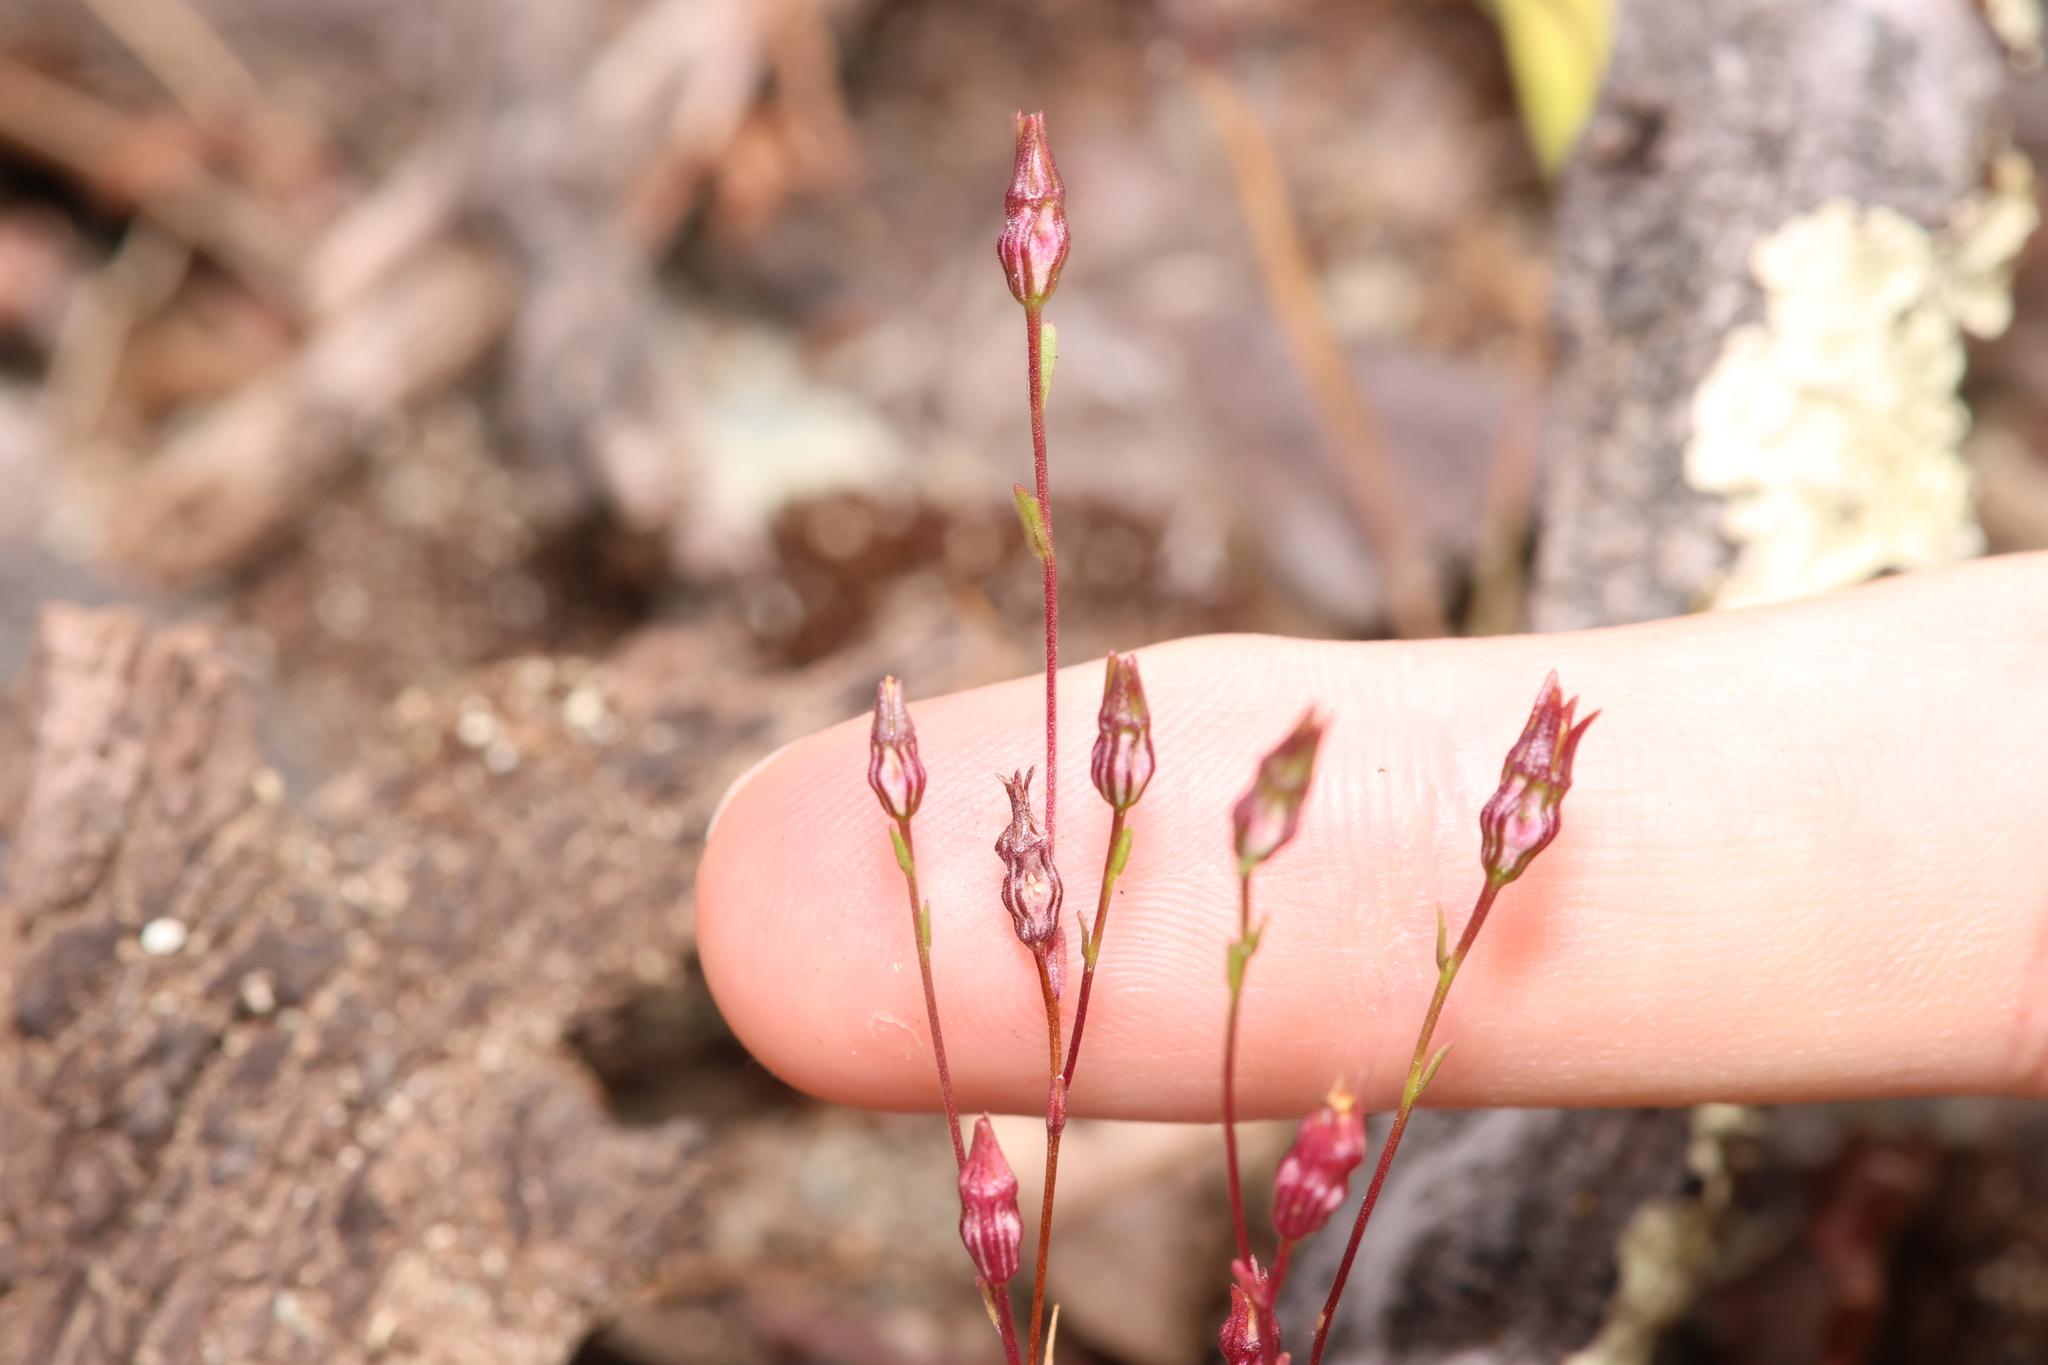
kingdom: Plantae
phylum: Tracheophyta
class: Magnoliopsida
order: Asterales
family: Campanulaceae
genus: Ravenella
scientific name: Ravenella griffinii
